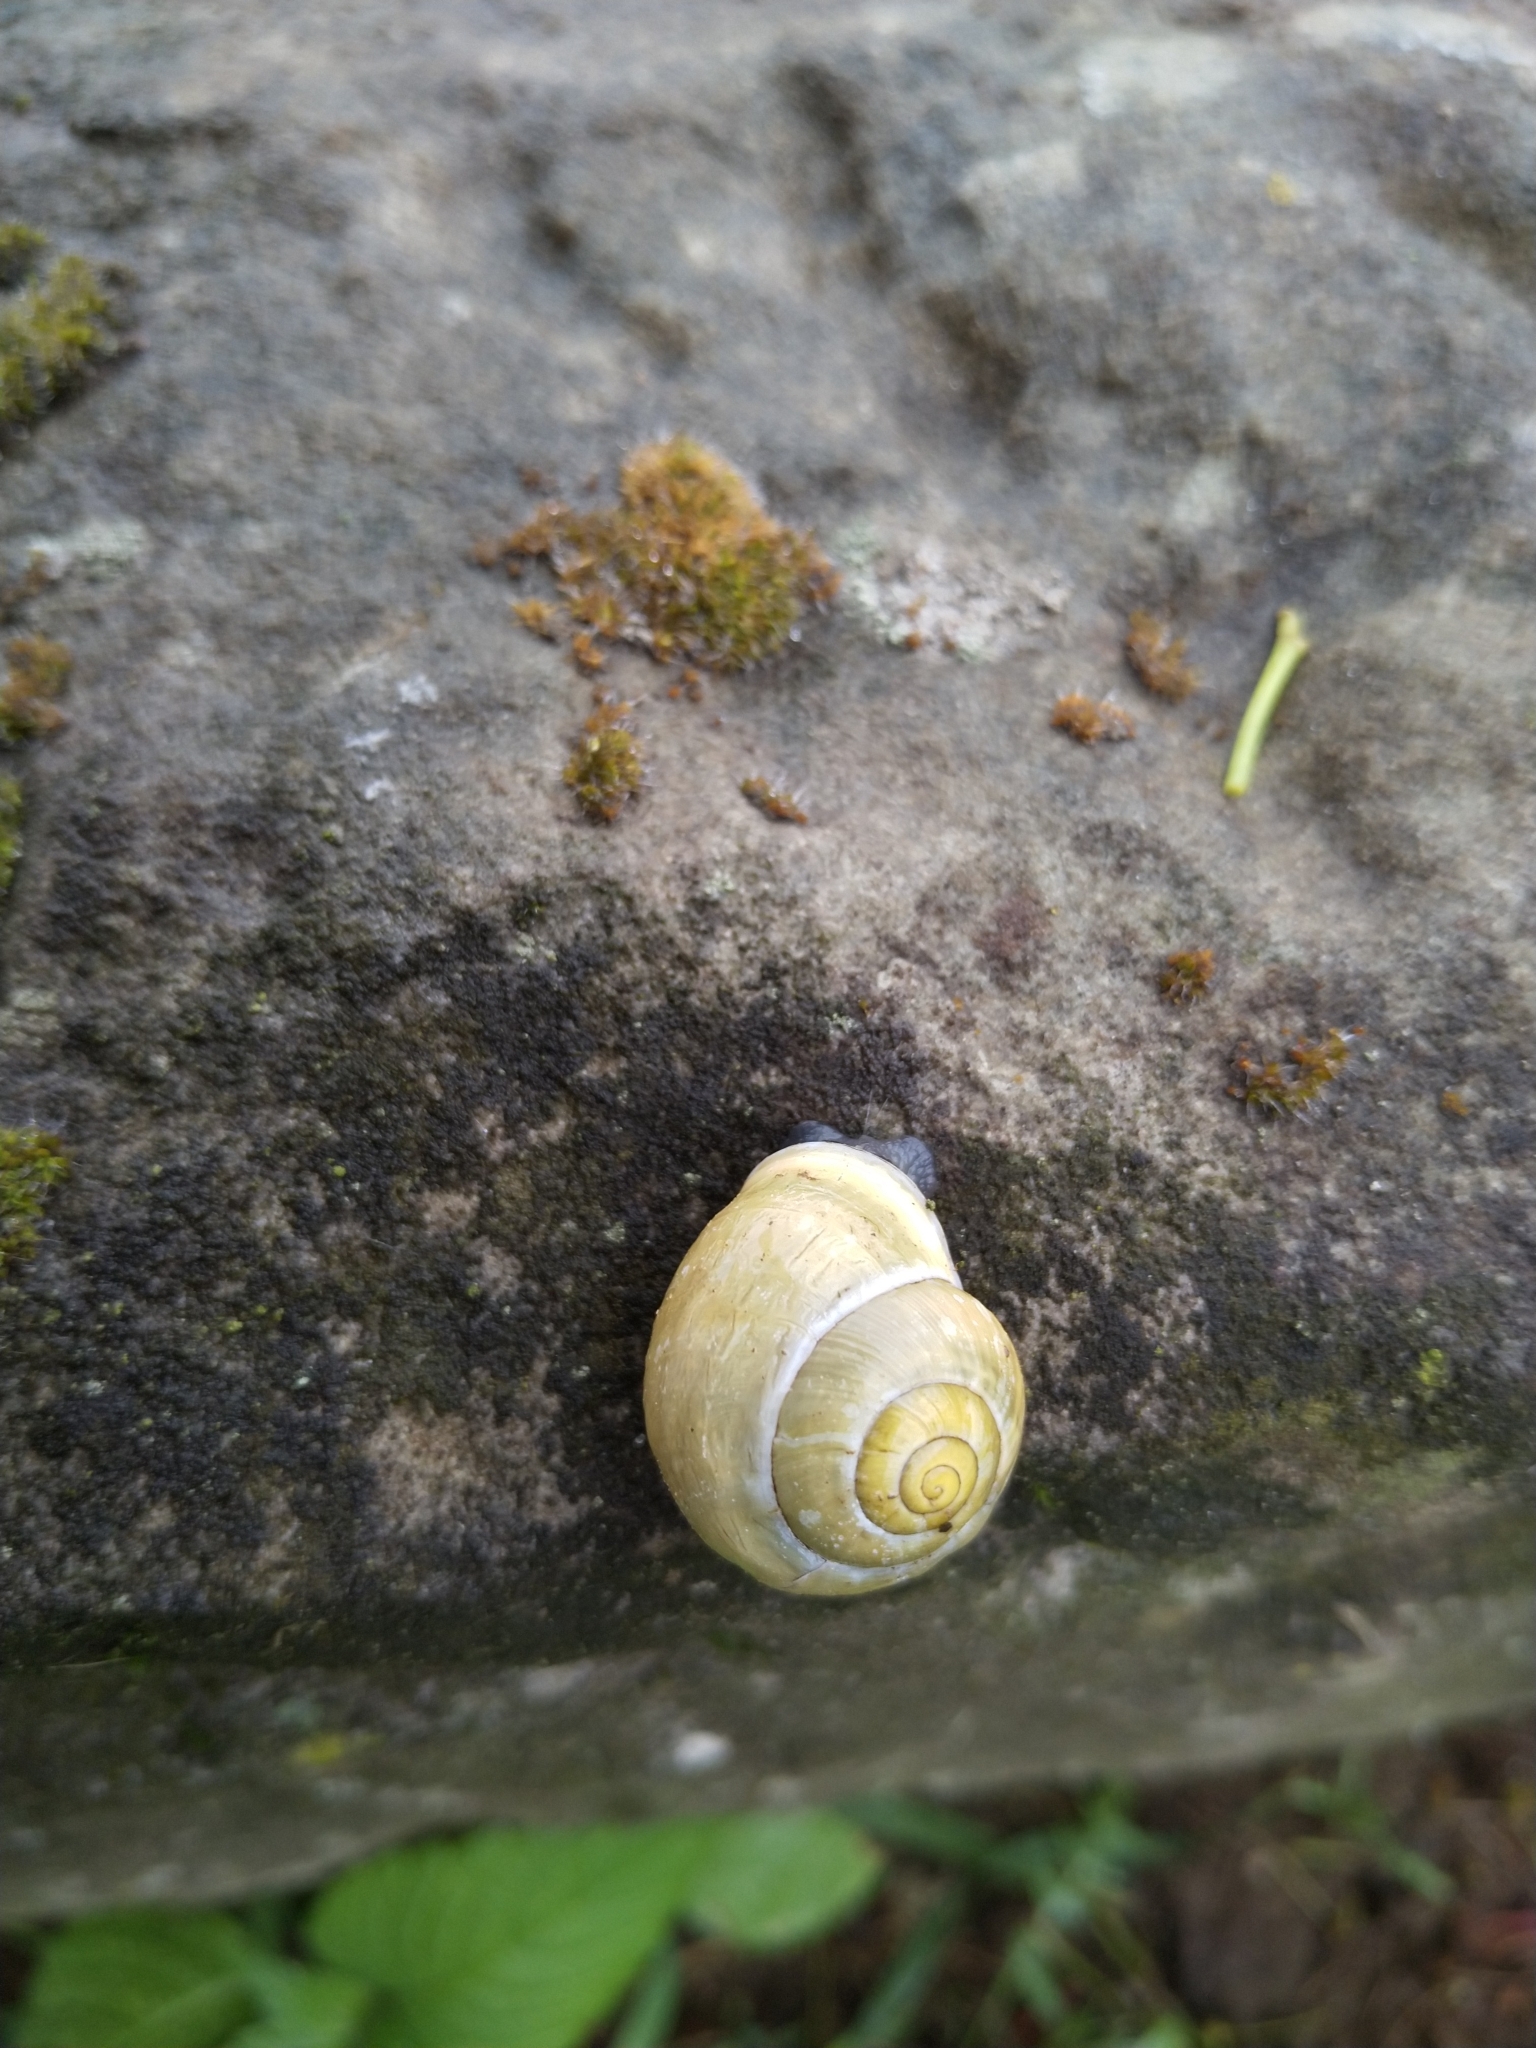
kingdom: Animalia
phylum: Mollusca
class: Gastropoda
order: Stylommatophora
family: Helicidae
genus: Cepaea
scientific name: Cepaea nemoralis
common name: Grovesnail
